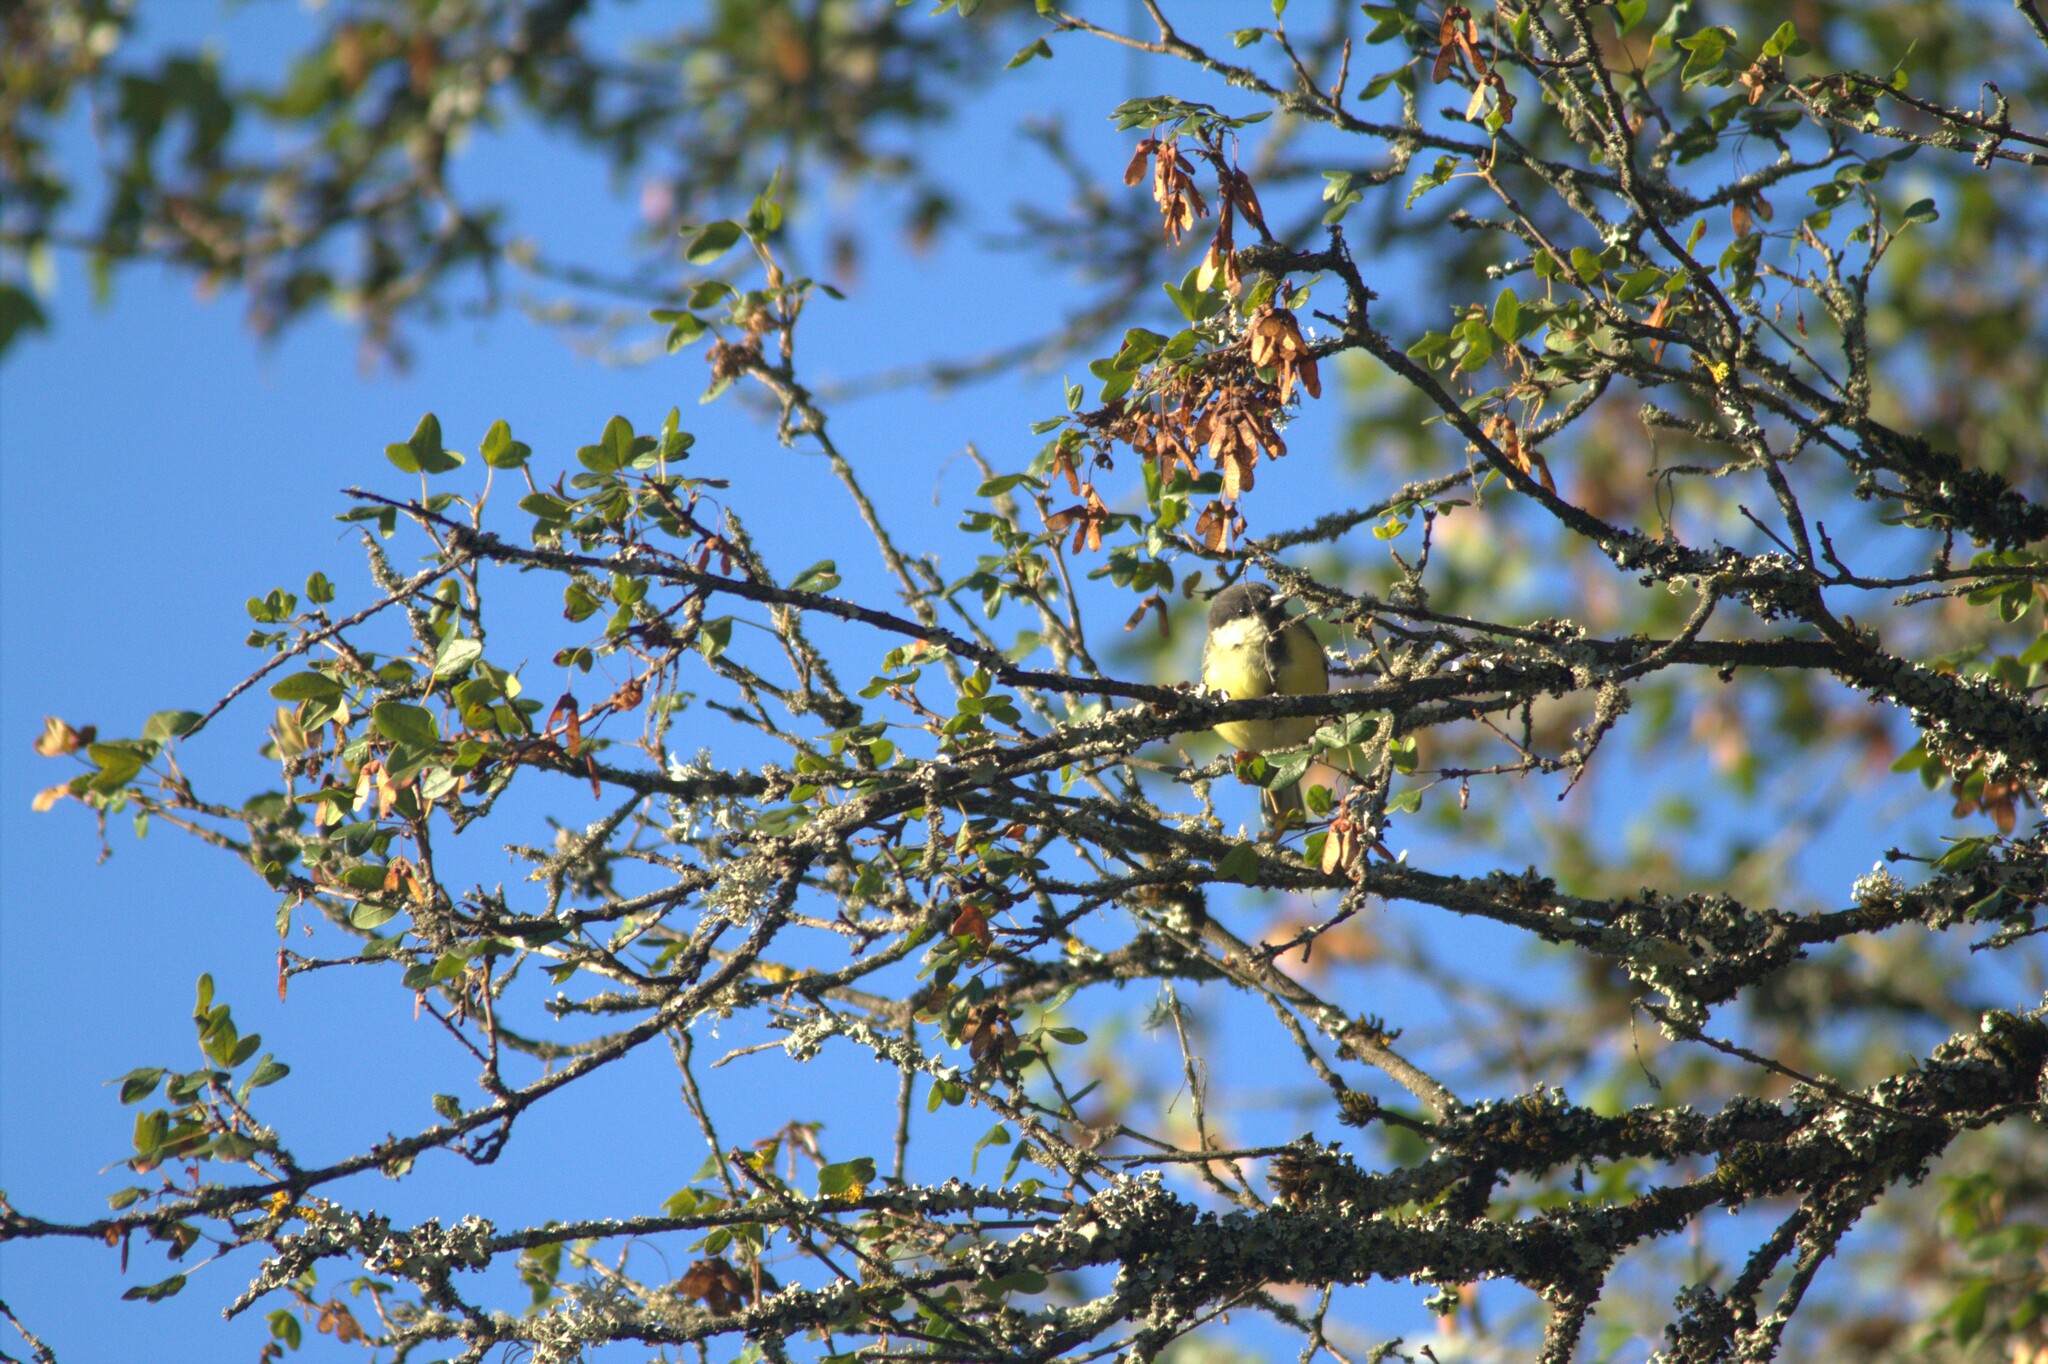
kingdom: Animalia
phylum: Chordata
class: Aves
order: Passeriformes
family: Paridae
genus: Parus
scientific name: Parus major
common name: Great tit
